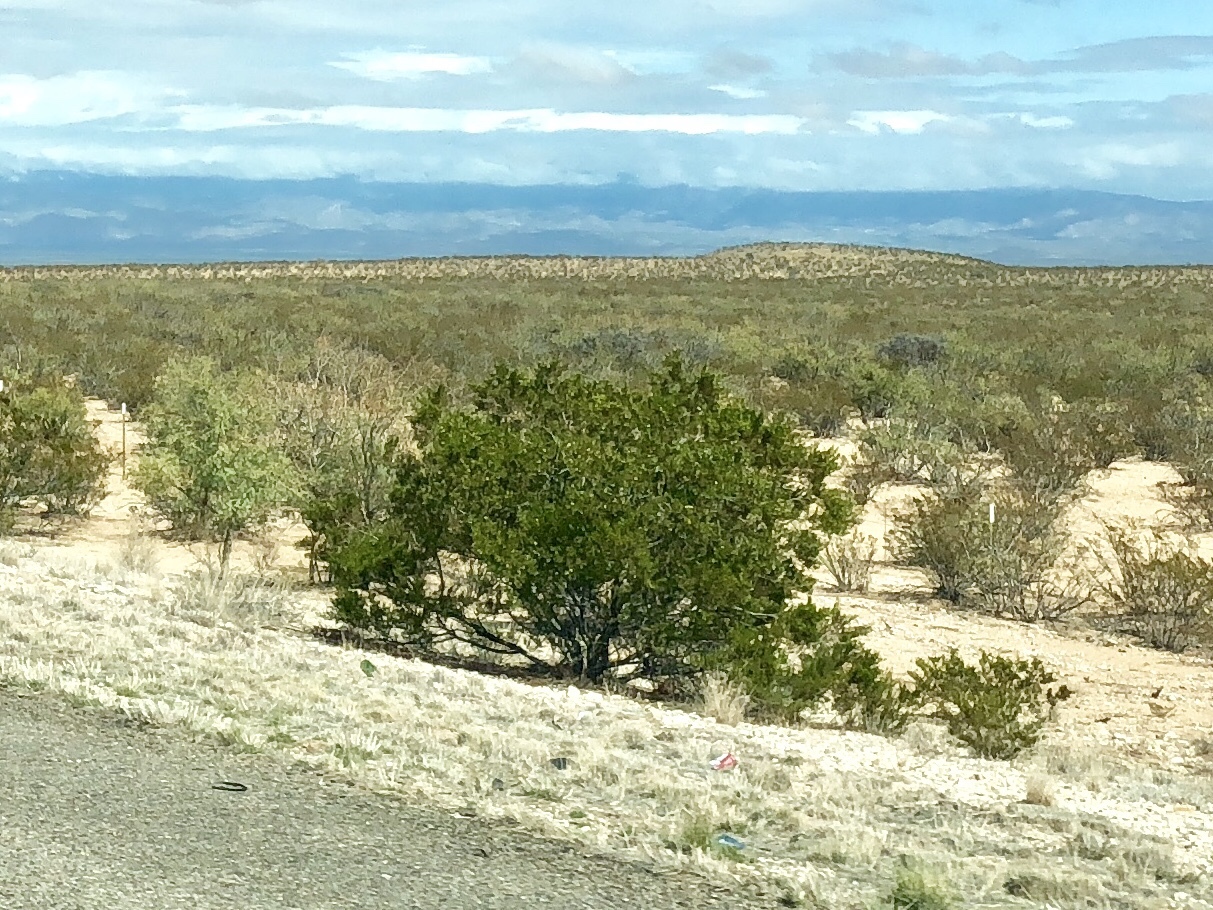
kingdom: Plantae
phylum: Tracheophyta
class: Magnoliopsida
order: Zygophyllales
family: Zygophyllaceae
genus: Larrea
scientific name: Larrea tridentata
